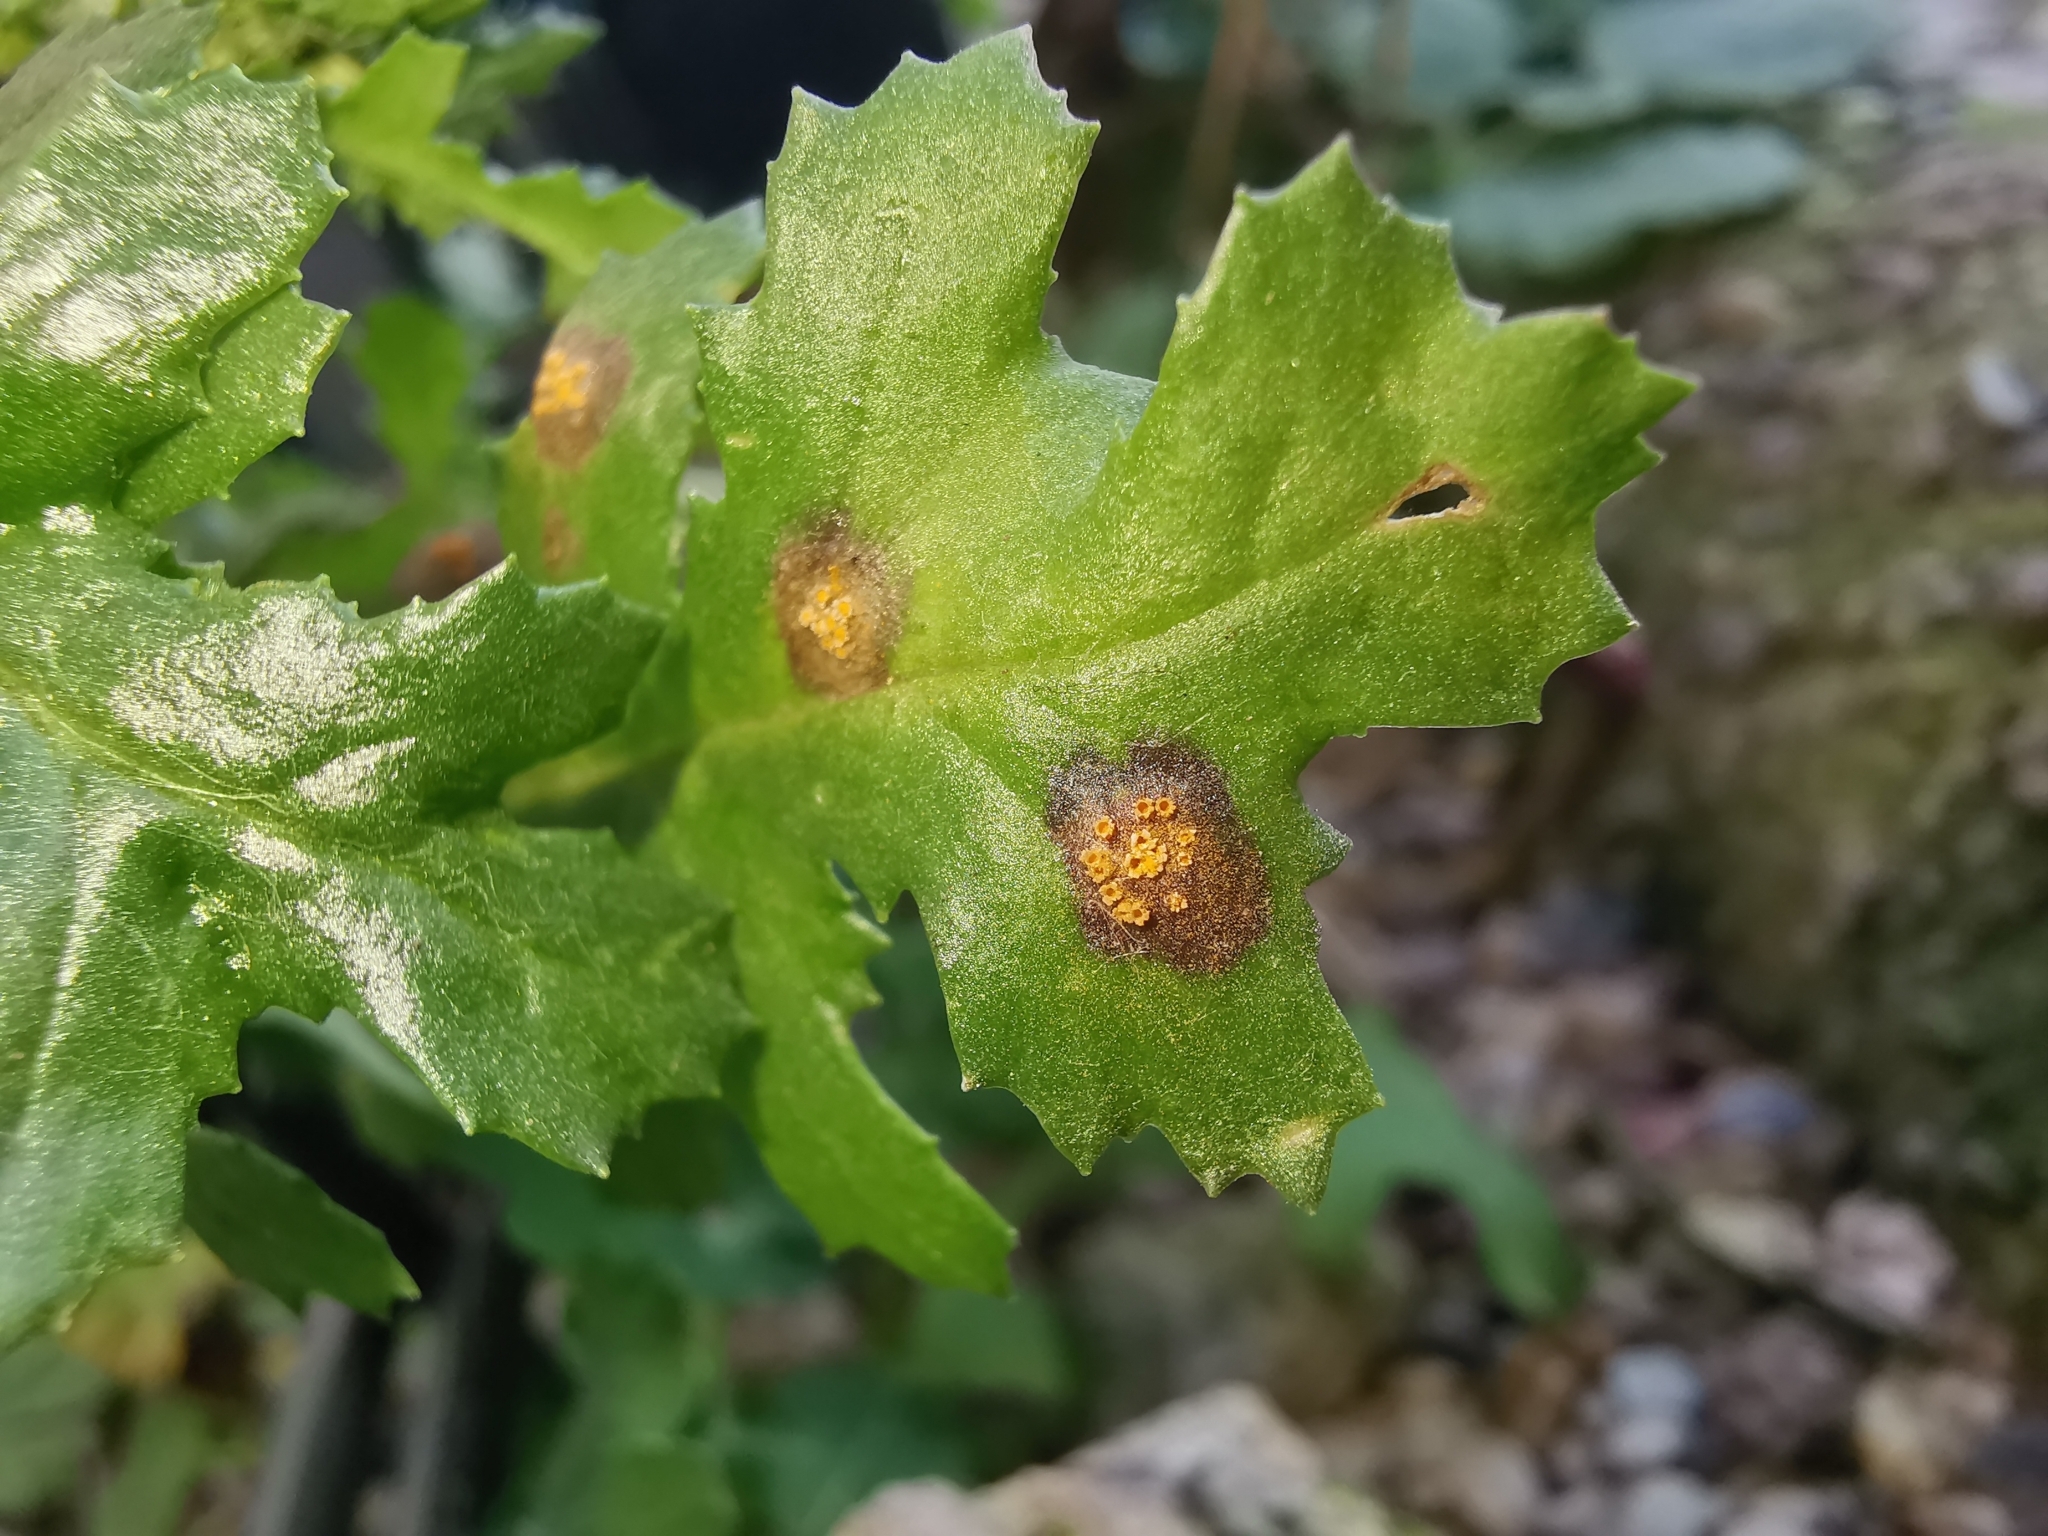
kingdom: Fungi
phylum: Basidiomycota
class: Pucciniomycetes
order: Pucciniales
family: Pucciniaceae
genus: Puccinia
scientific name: Puccinia lagenophorae
